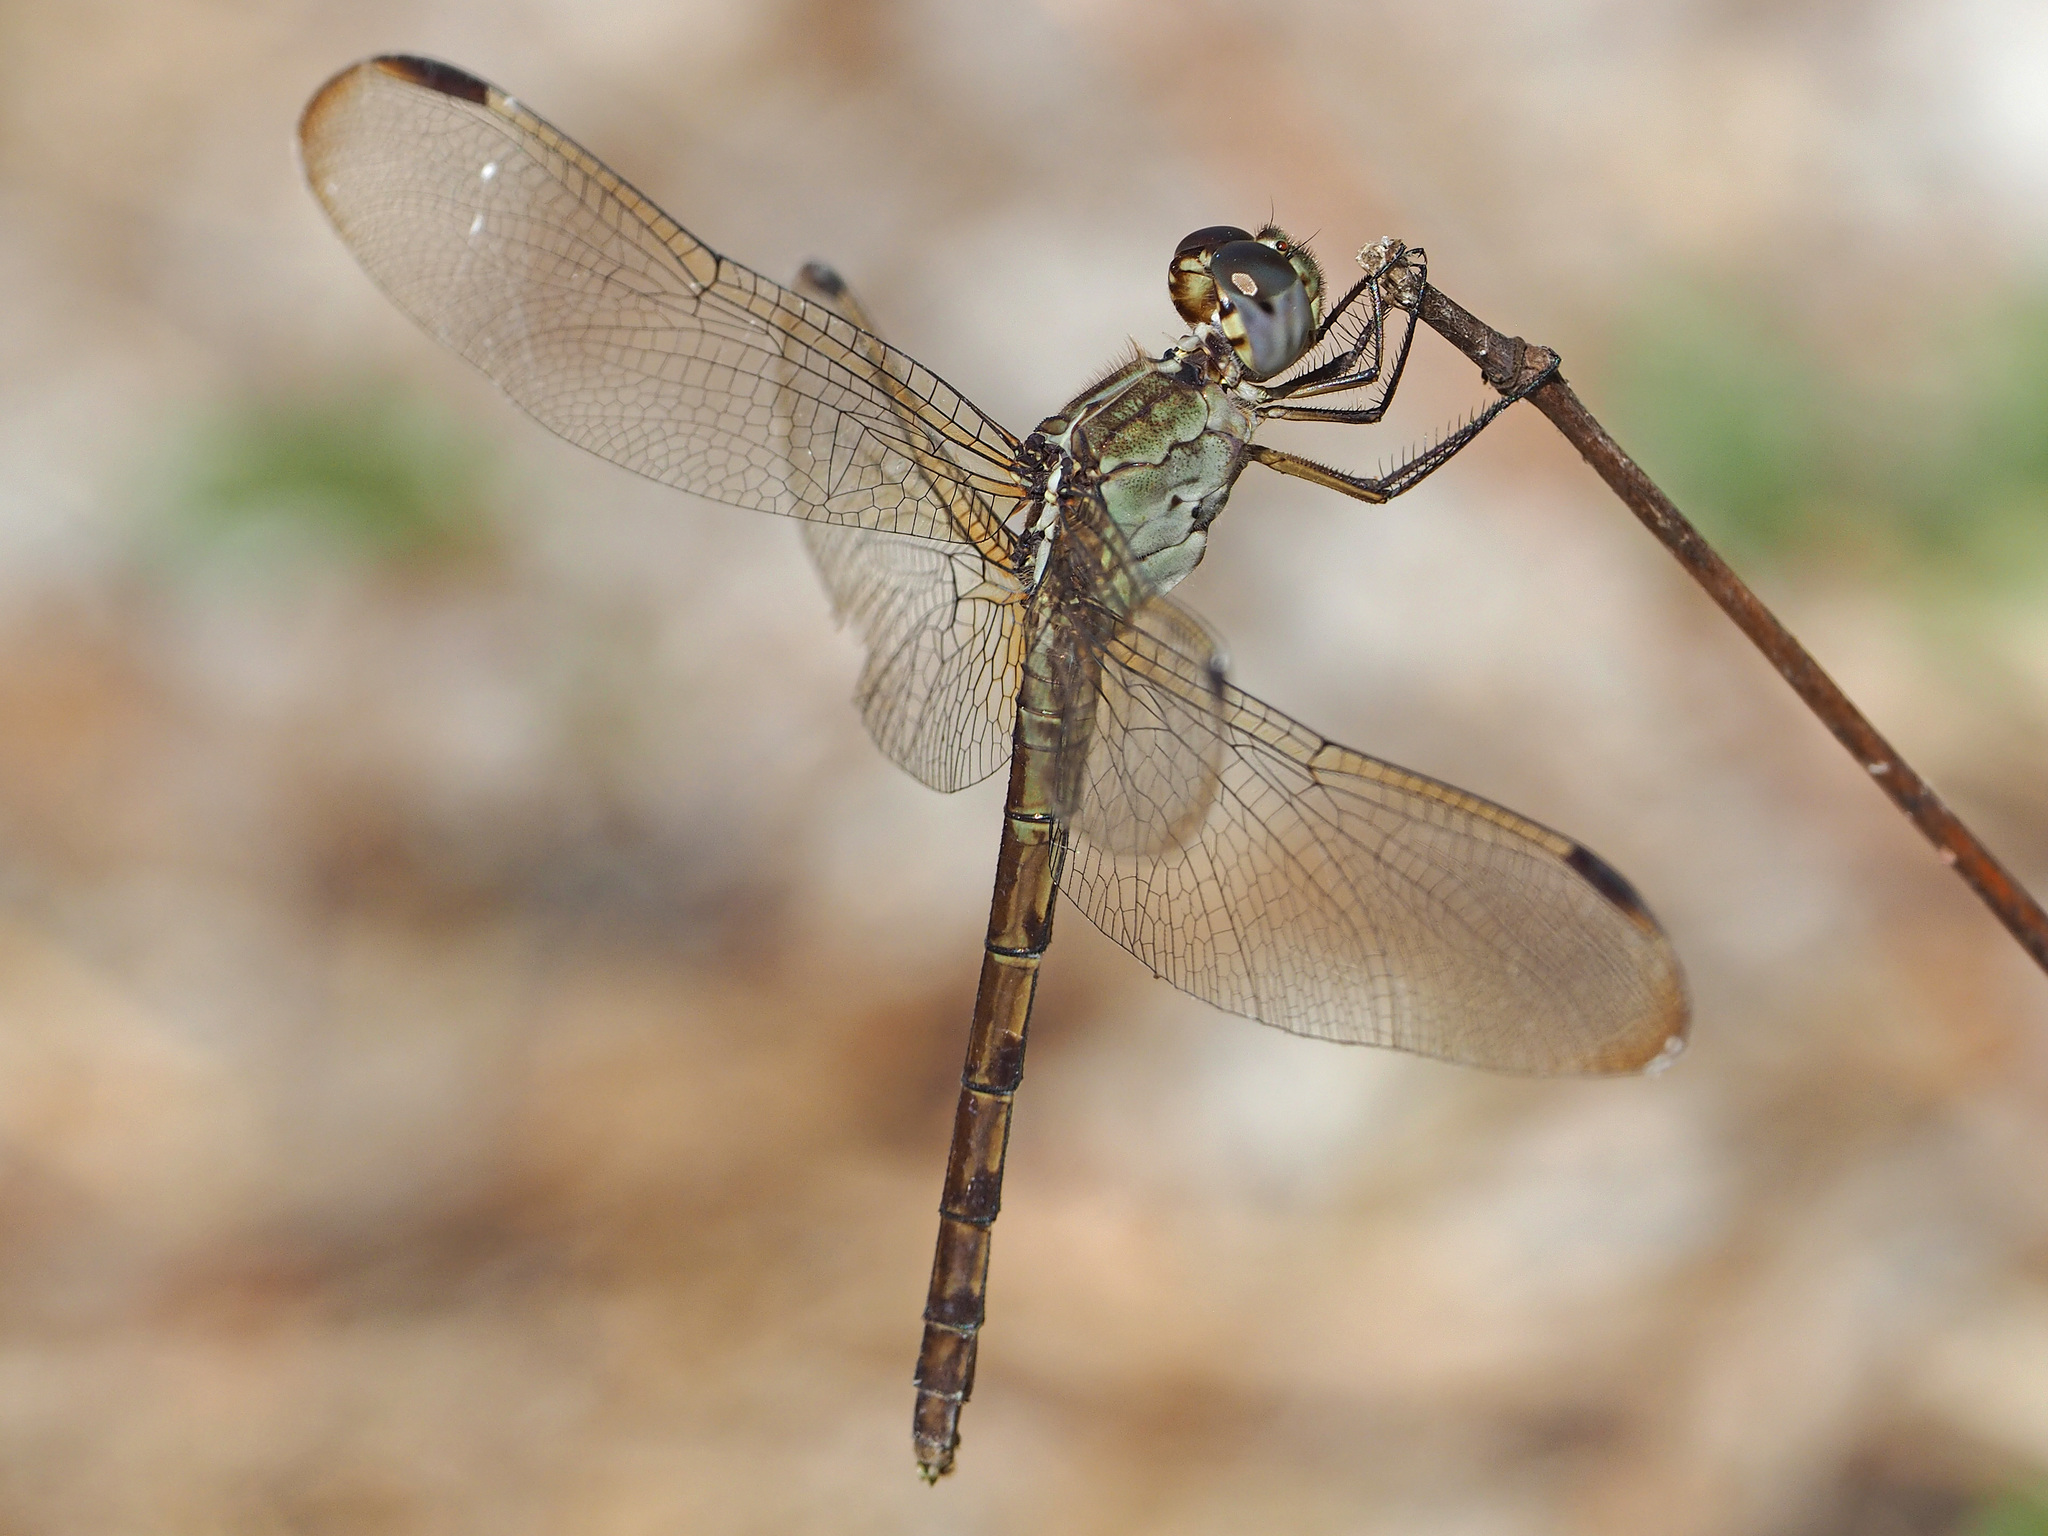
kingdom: Animalia
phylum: Arthropoda
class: Insecta
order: Odonata
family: Libellulidae
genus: Erythrodiplax
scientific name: Erythrodiplax umbrata
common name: Band-winged dragonlet
